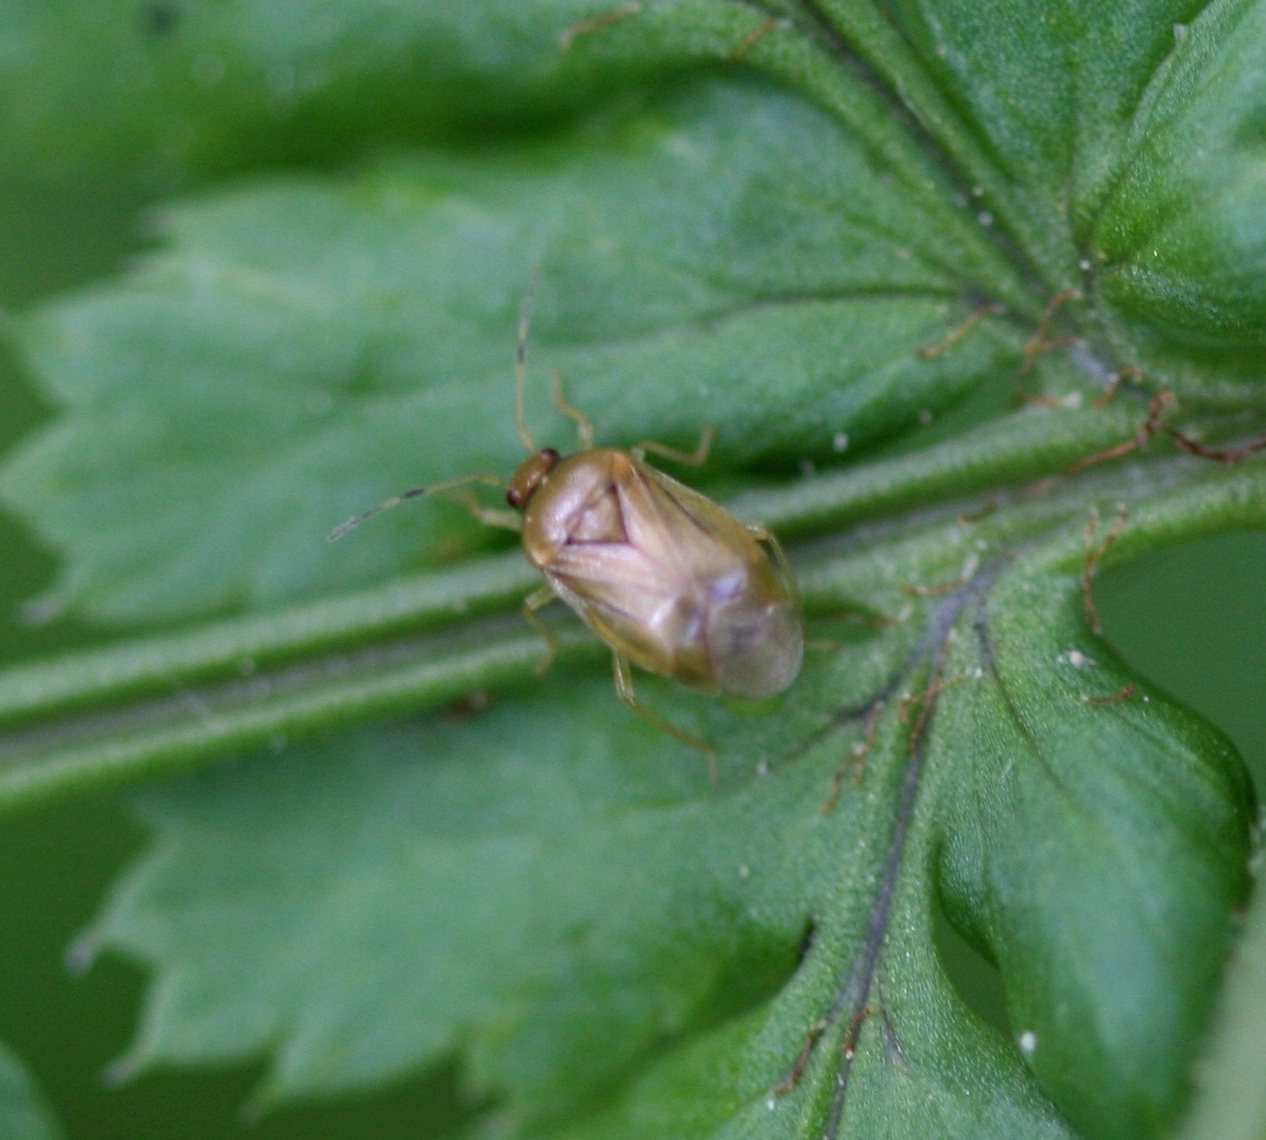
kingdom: Animalia
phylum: Arthropoda
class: Insecta
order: Hemiptera
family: Miridae
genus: Monalocoris
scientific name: Monalocoris filicis
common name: Bracken bug
